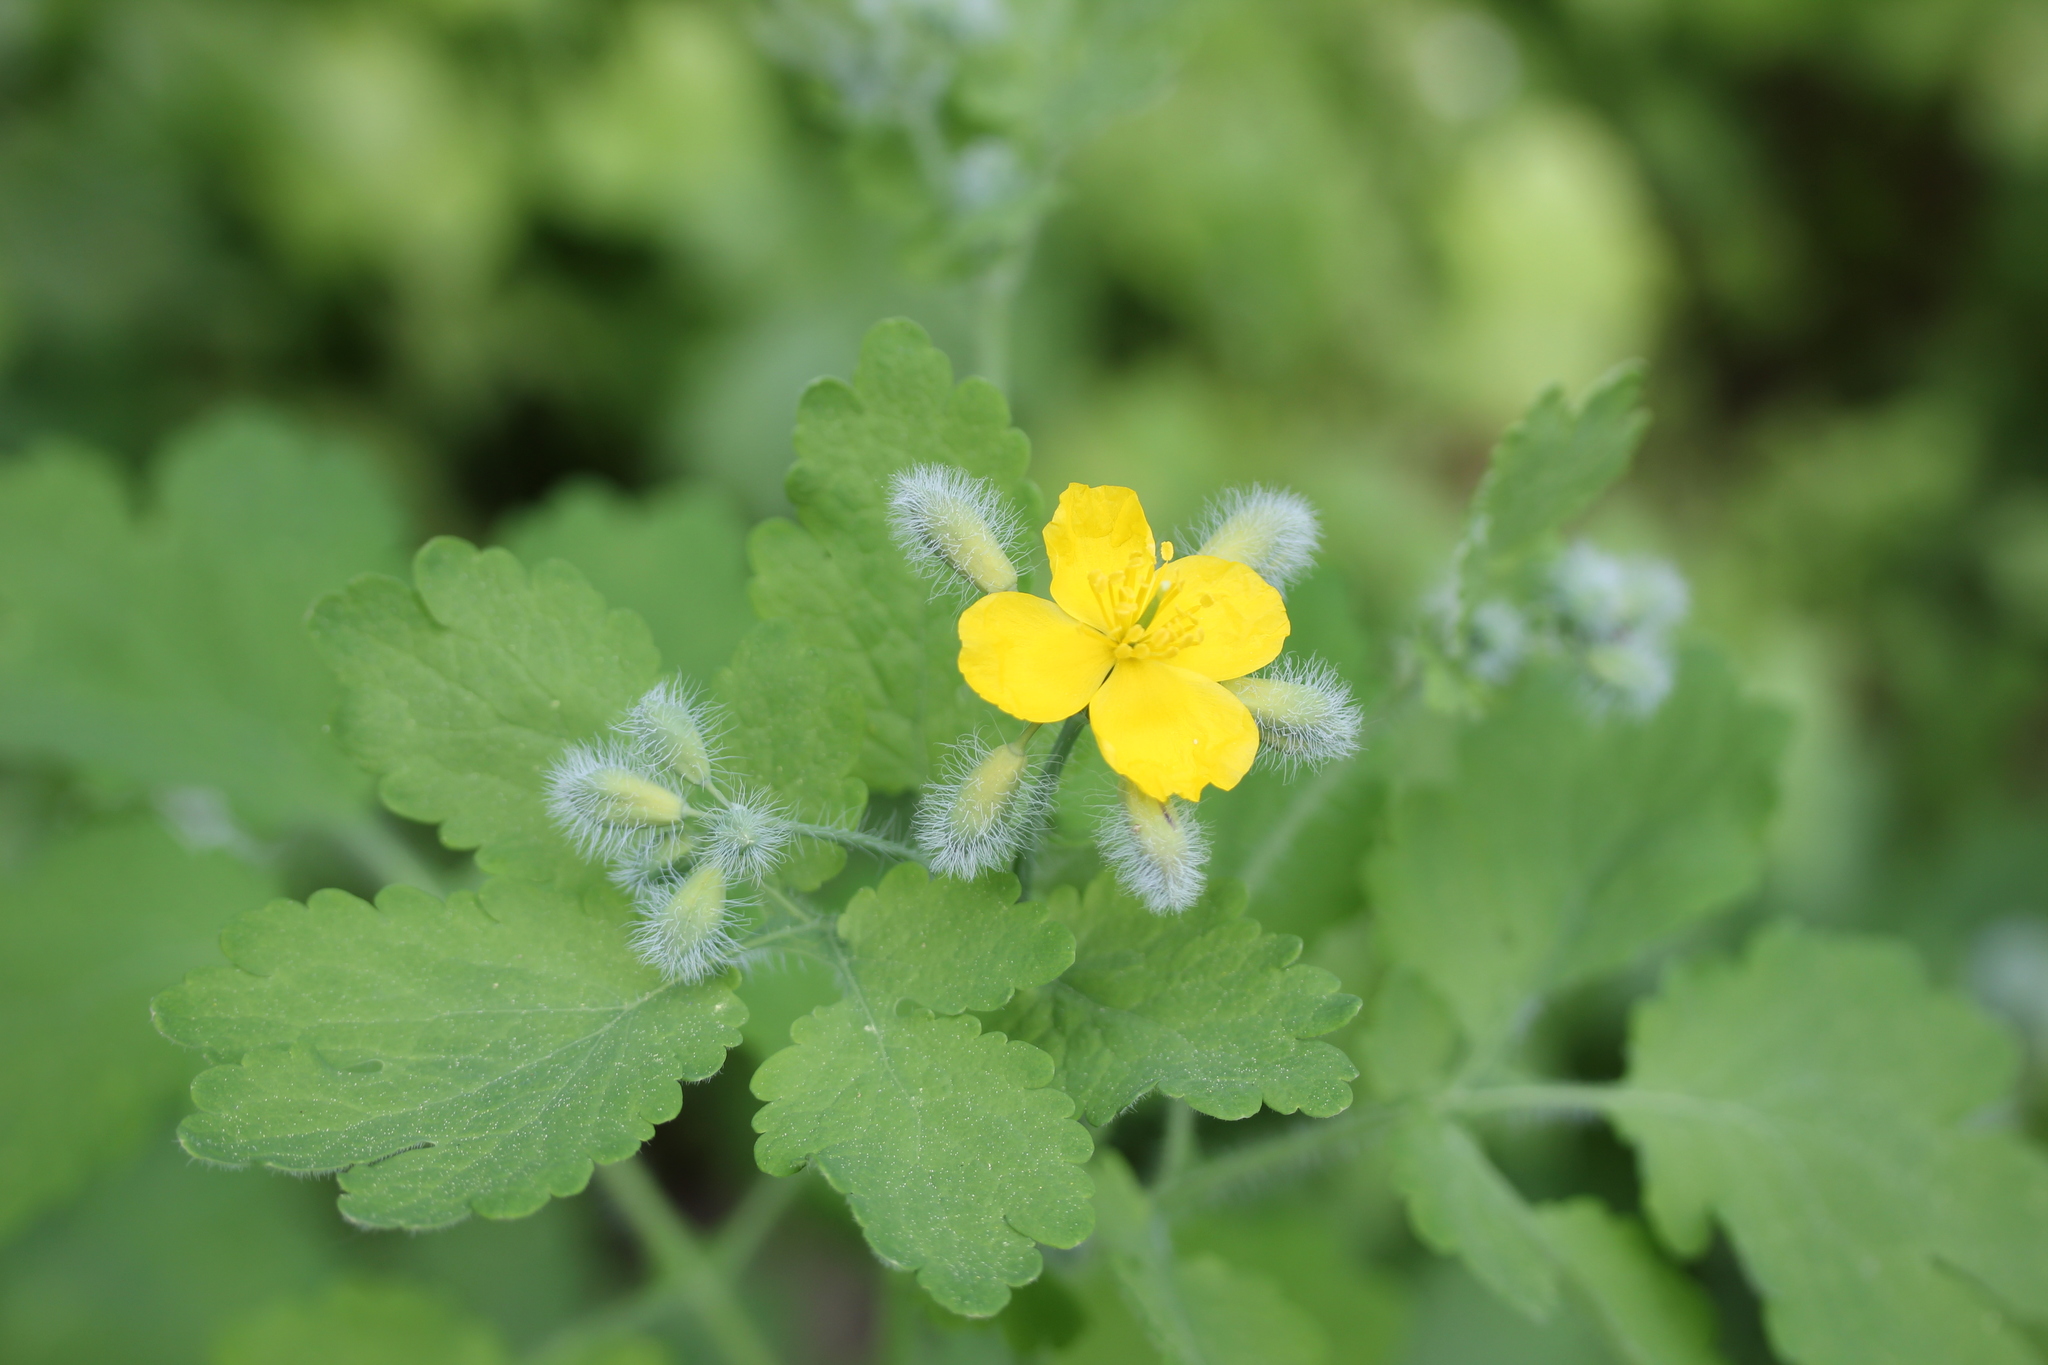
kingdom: Plantae
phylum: Tracheophyta
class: Magnoliopsida
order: Ranunculales
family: Papaveraceae
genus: Chelidonium
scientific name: Chelidonium majus
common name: Greater celandine
